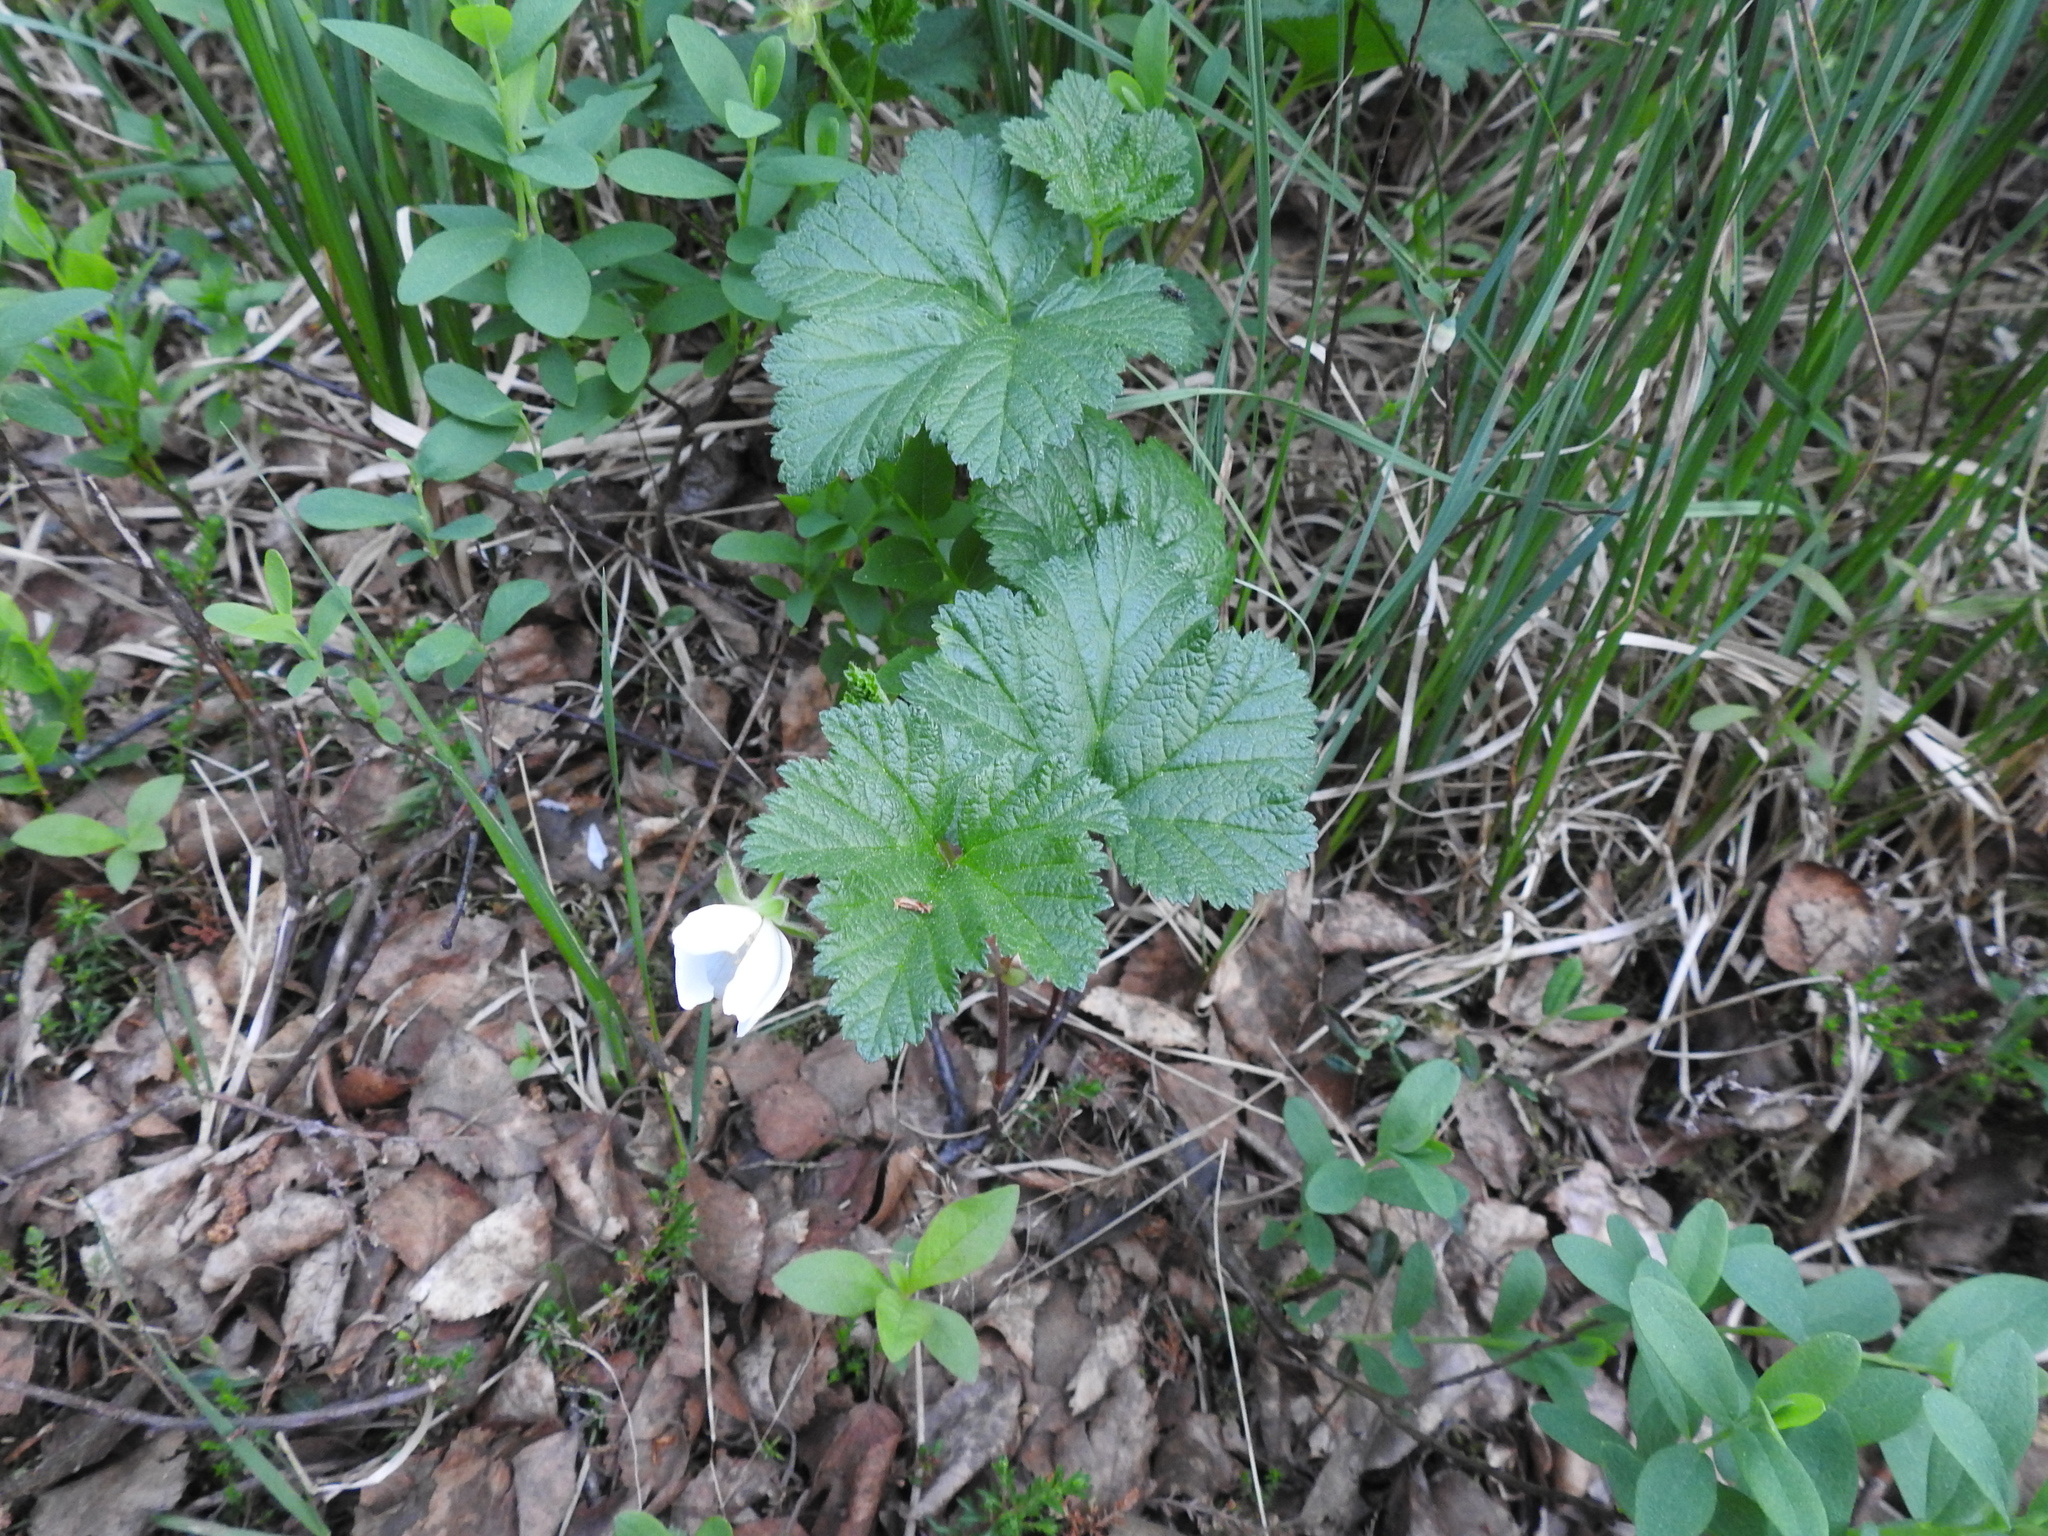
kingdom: Plantae
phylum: Tracheophyta
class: Magnoliopsida
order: Rosales
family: Rosaceae
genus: Rubus
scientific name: Rubus chamaemorus
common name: Cloudberry
